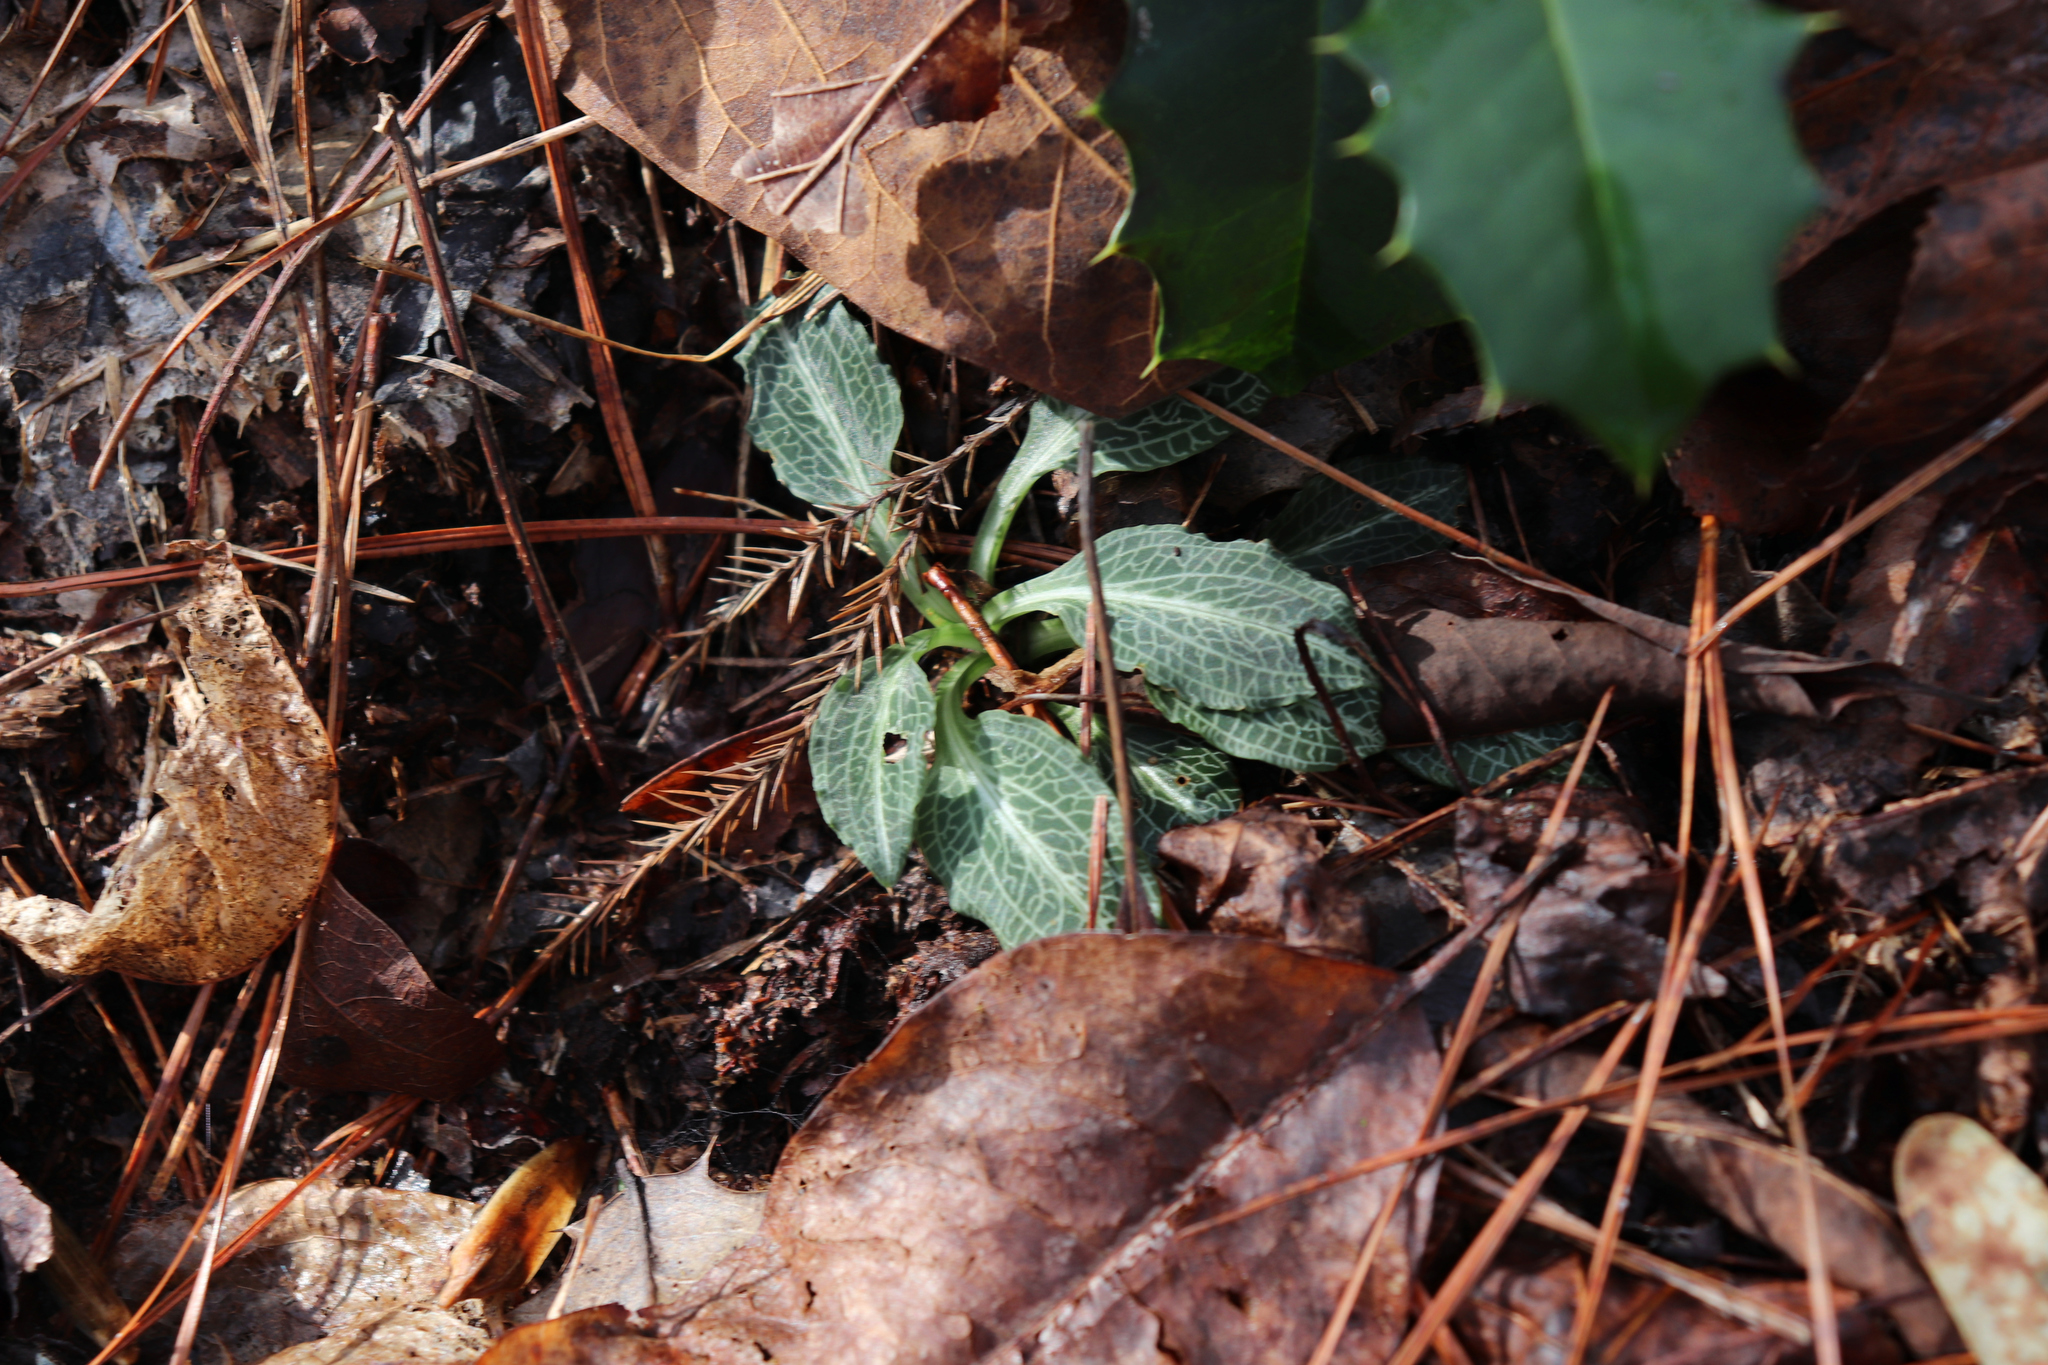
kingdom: Plantae
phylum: Tracheophyta
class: Liliopsida
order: Asparagales
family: Orchidaceae
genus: Goodyera
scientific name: Goodyera pubescens
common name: Downy rattlesnake-plantain
